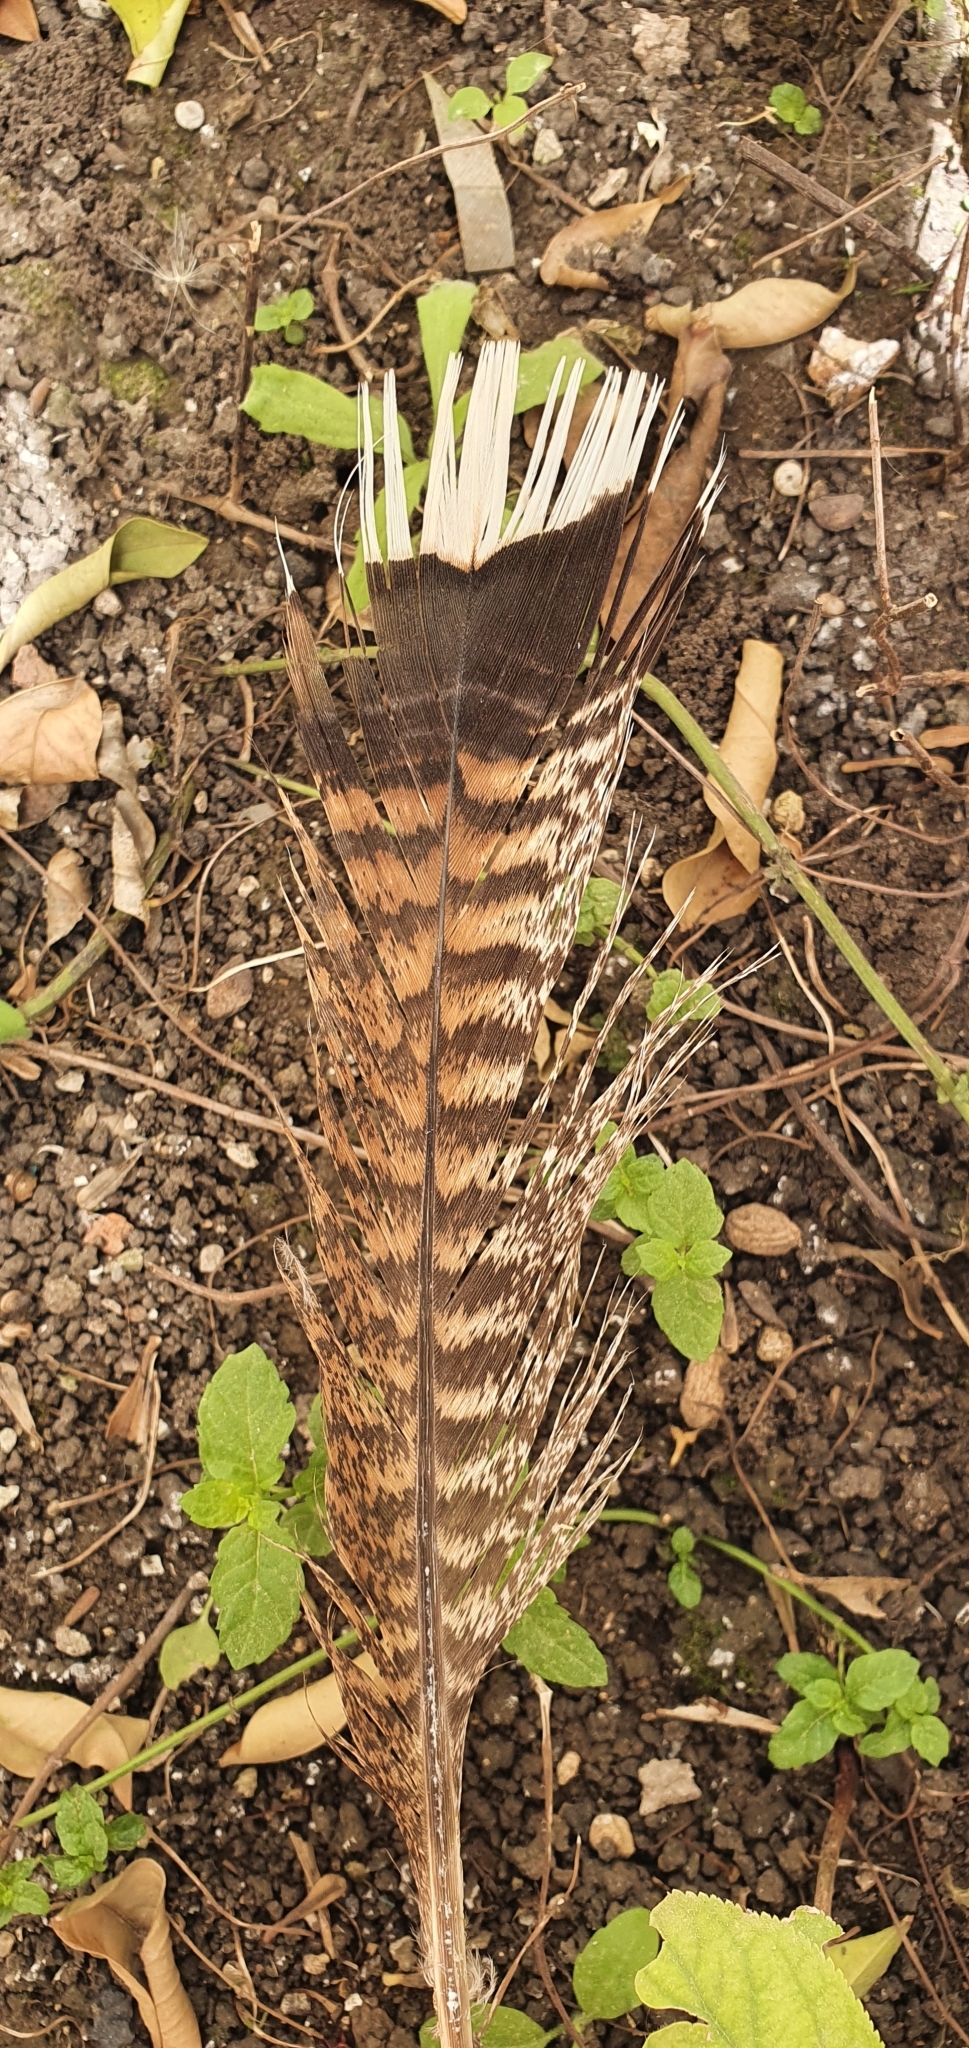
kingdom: Animalia
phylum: Chordata
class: Aves
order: Galliformes
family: Phasianidae
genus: Meleagris
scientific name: Meleagris gallopavo
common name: Wild turkey
